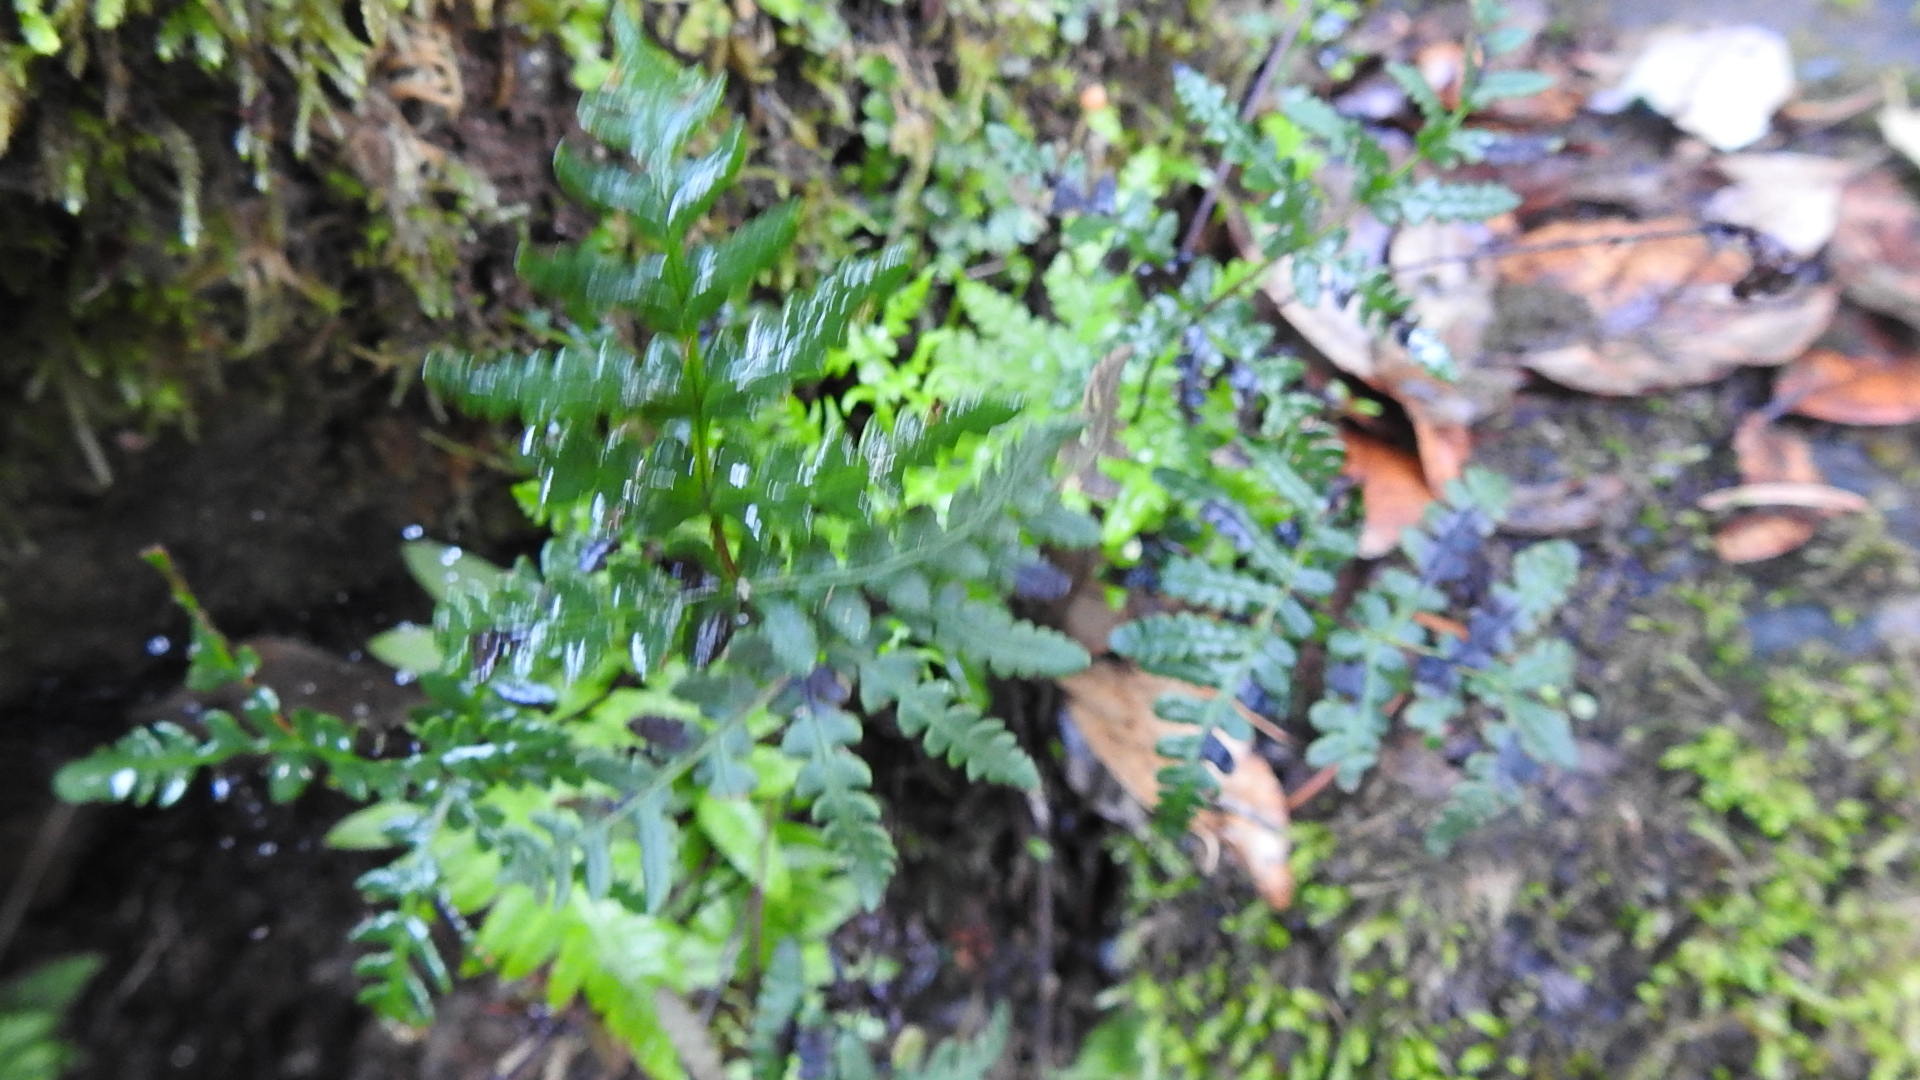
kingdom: Plantae
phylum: Tracheophyta
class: Polypodiopsida
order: Polypodiales
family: Pteridaceae
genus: Pentagramma
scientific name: Pentagramma triangularis
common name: Gold fern
